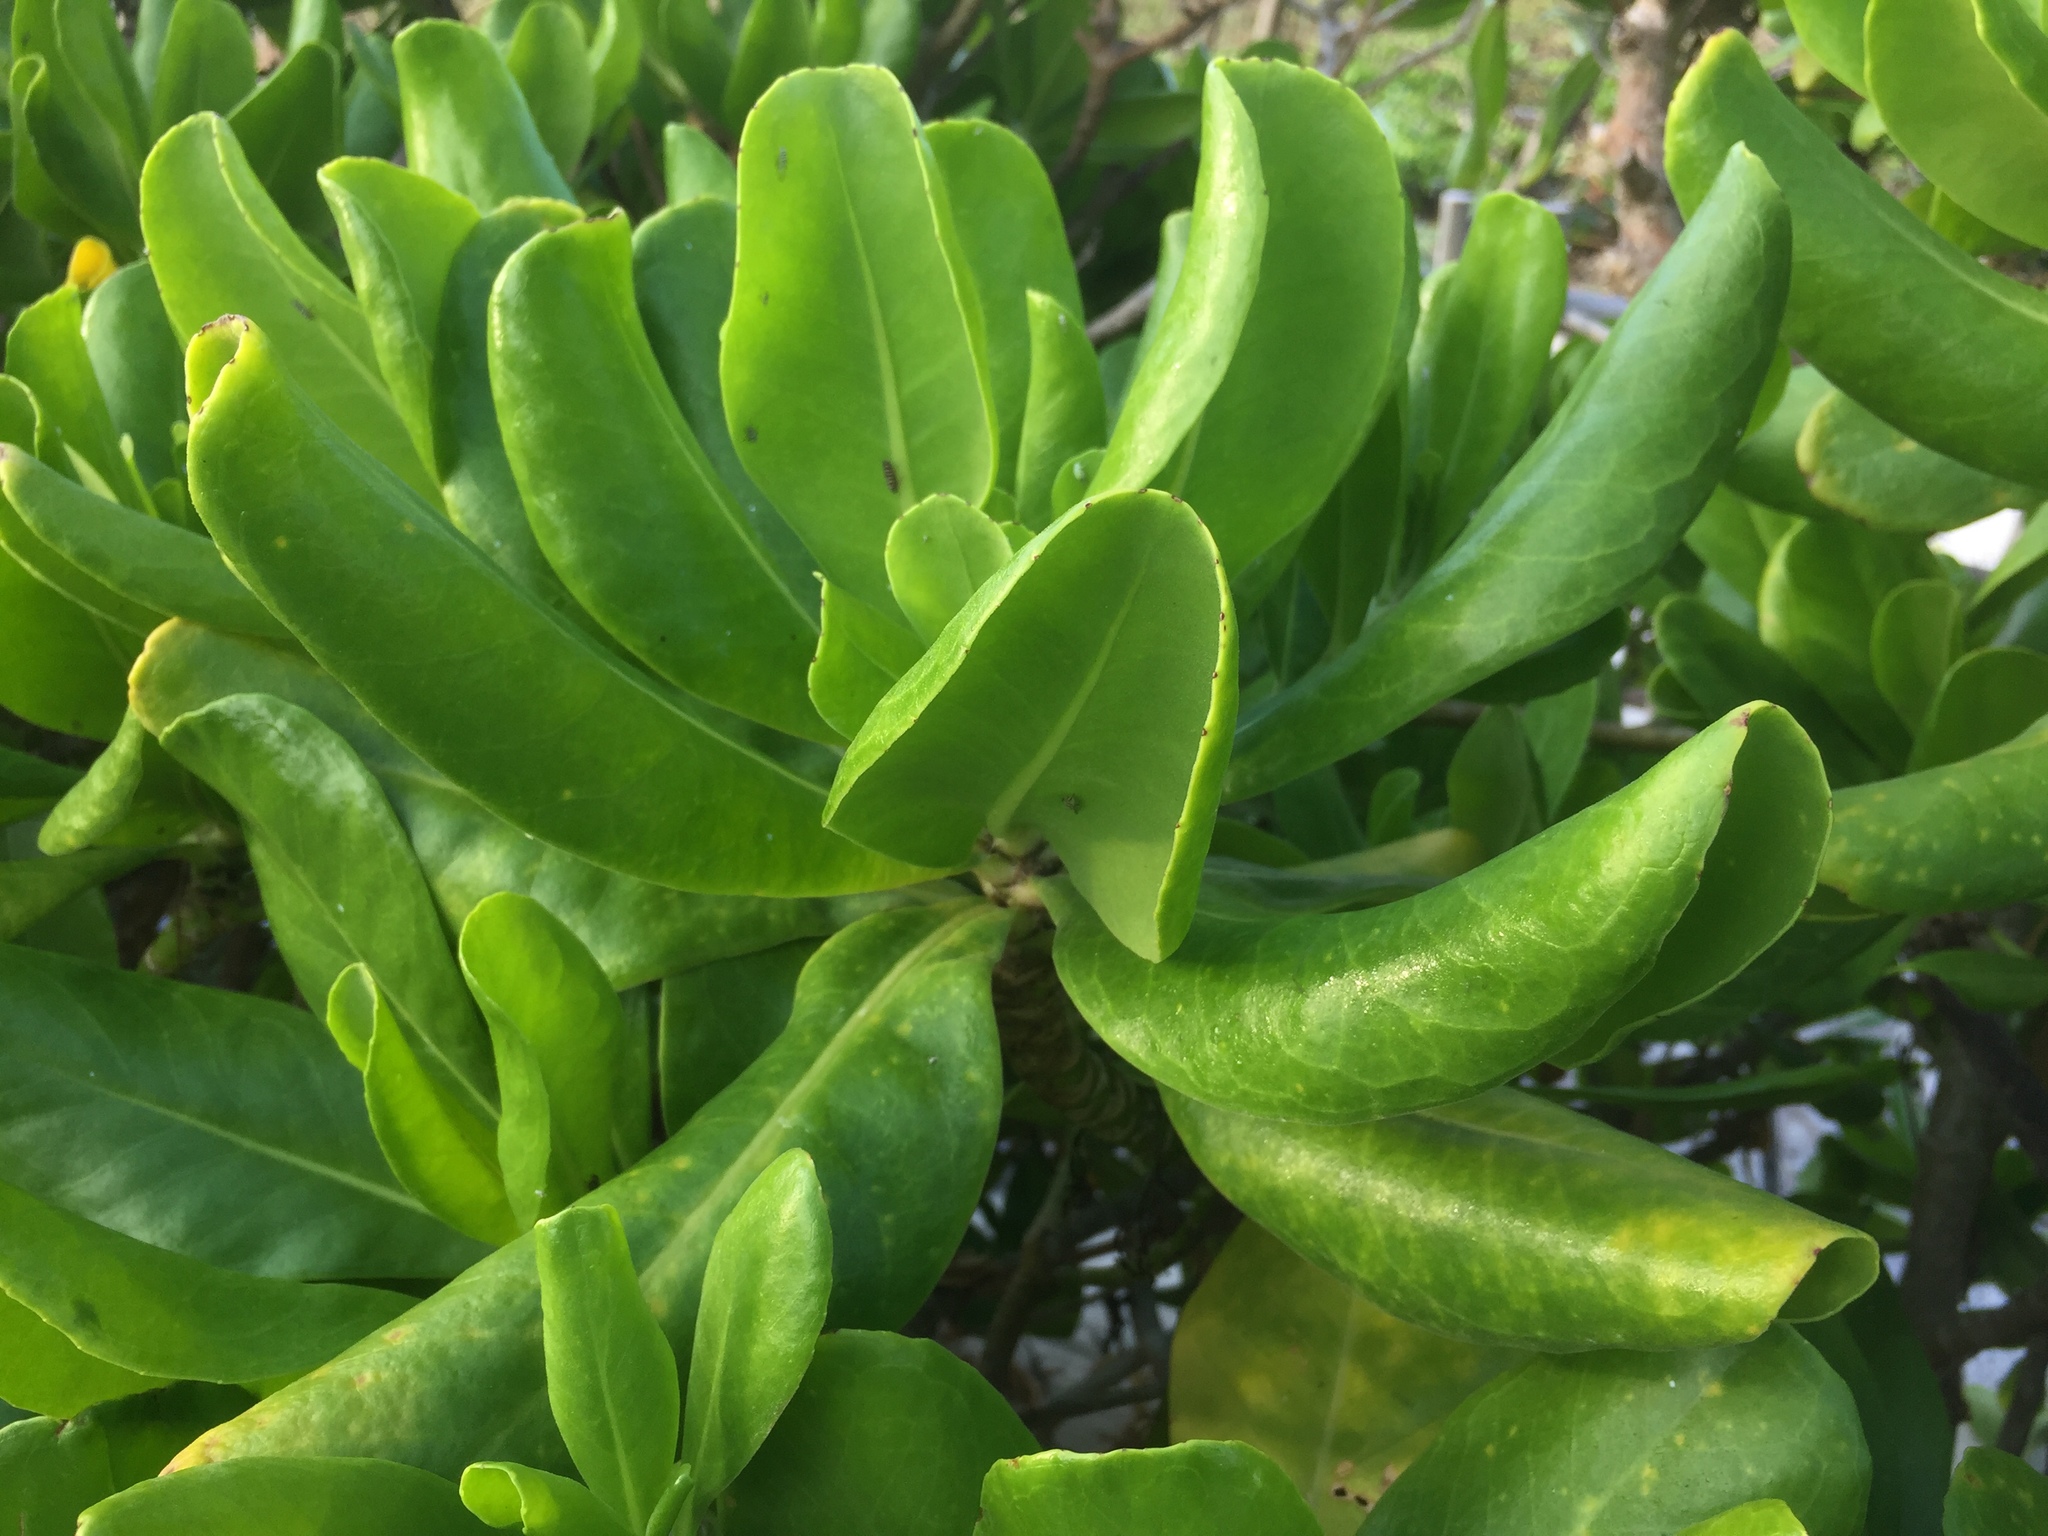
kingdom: Plantae
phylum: Tracheophyta
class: Magnoliopsida
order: Asterales
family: Goodeniaceae
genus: Scaevola
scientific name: Scaevola taccada
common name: Sea lettucetree
